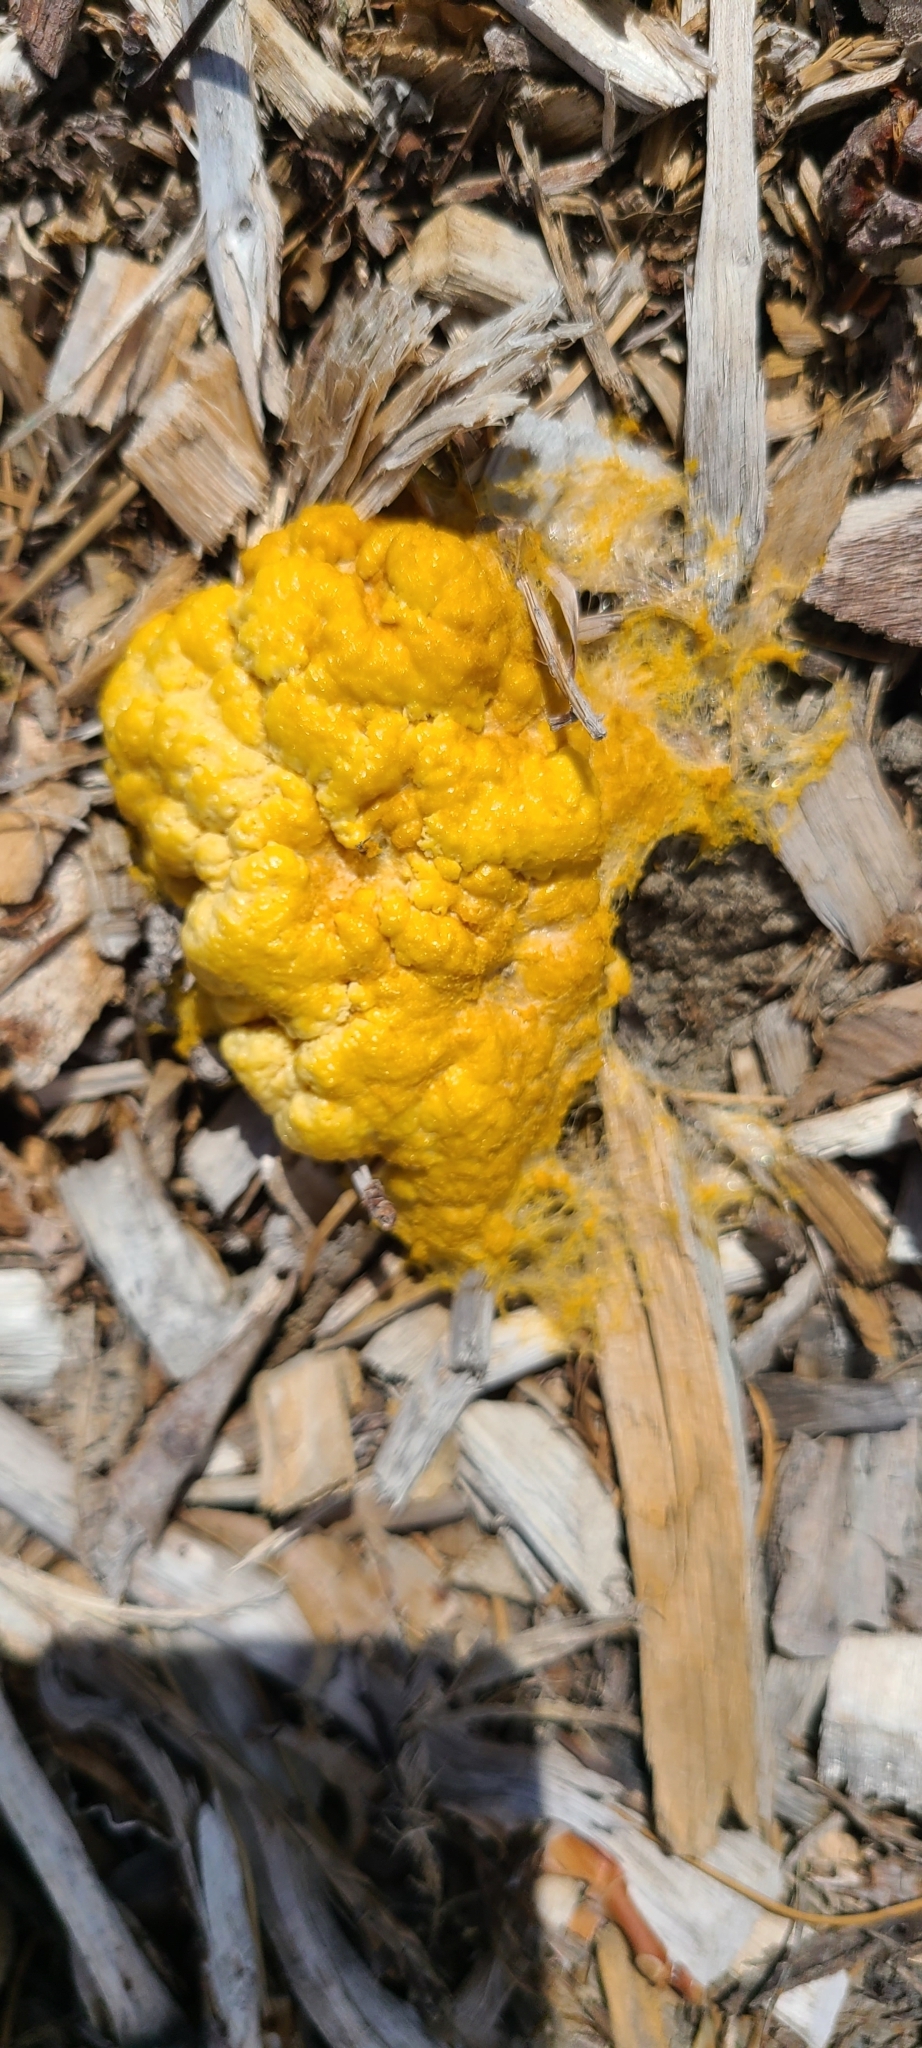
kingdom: Protozoa
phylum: Mycetozoa
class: Myxomycetes
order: Physarales
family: Physaraceae
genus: Fuligo
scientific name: Fuligo septica
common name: Dog vomit slime mold
